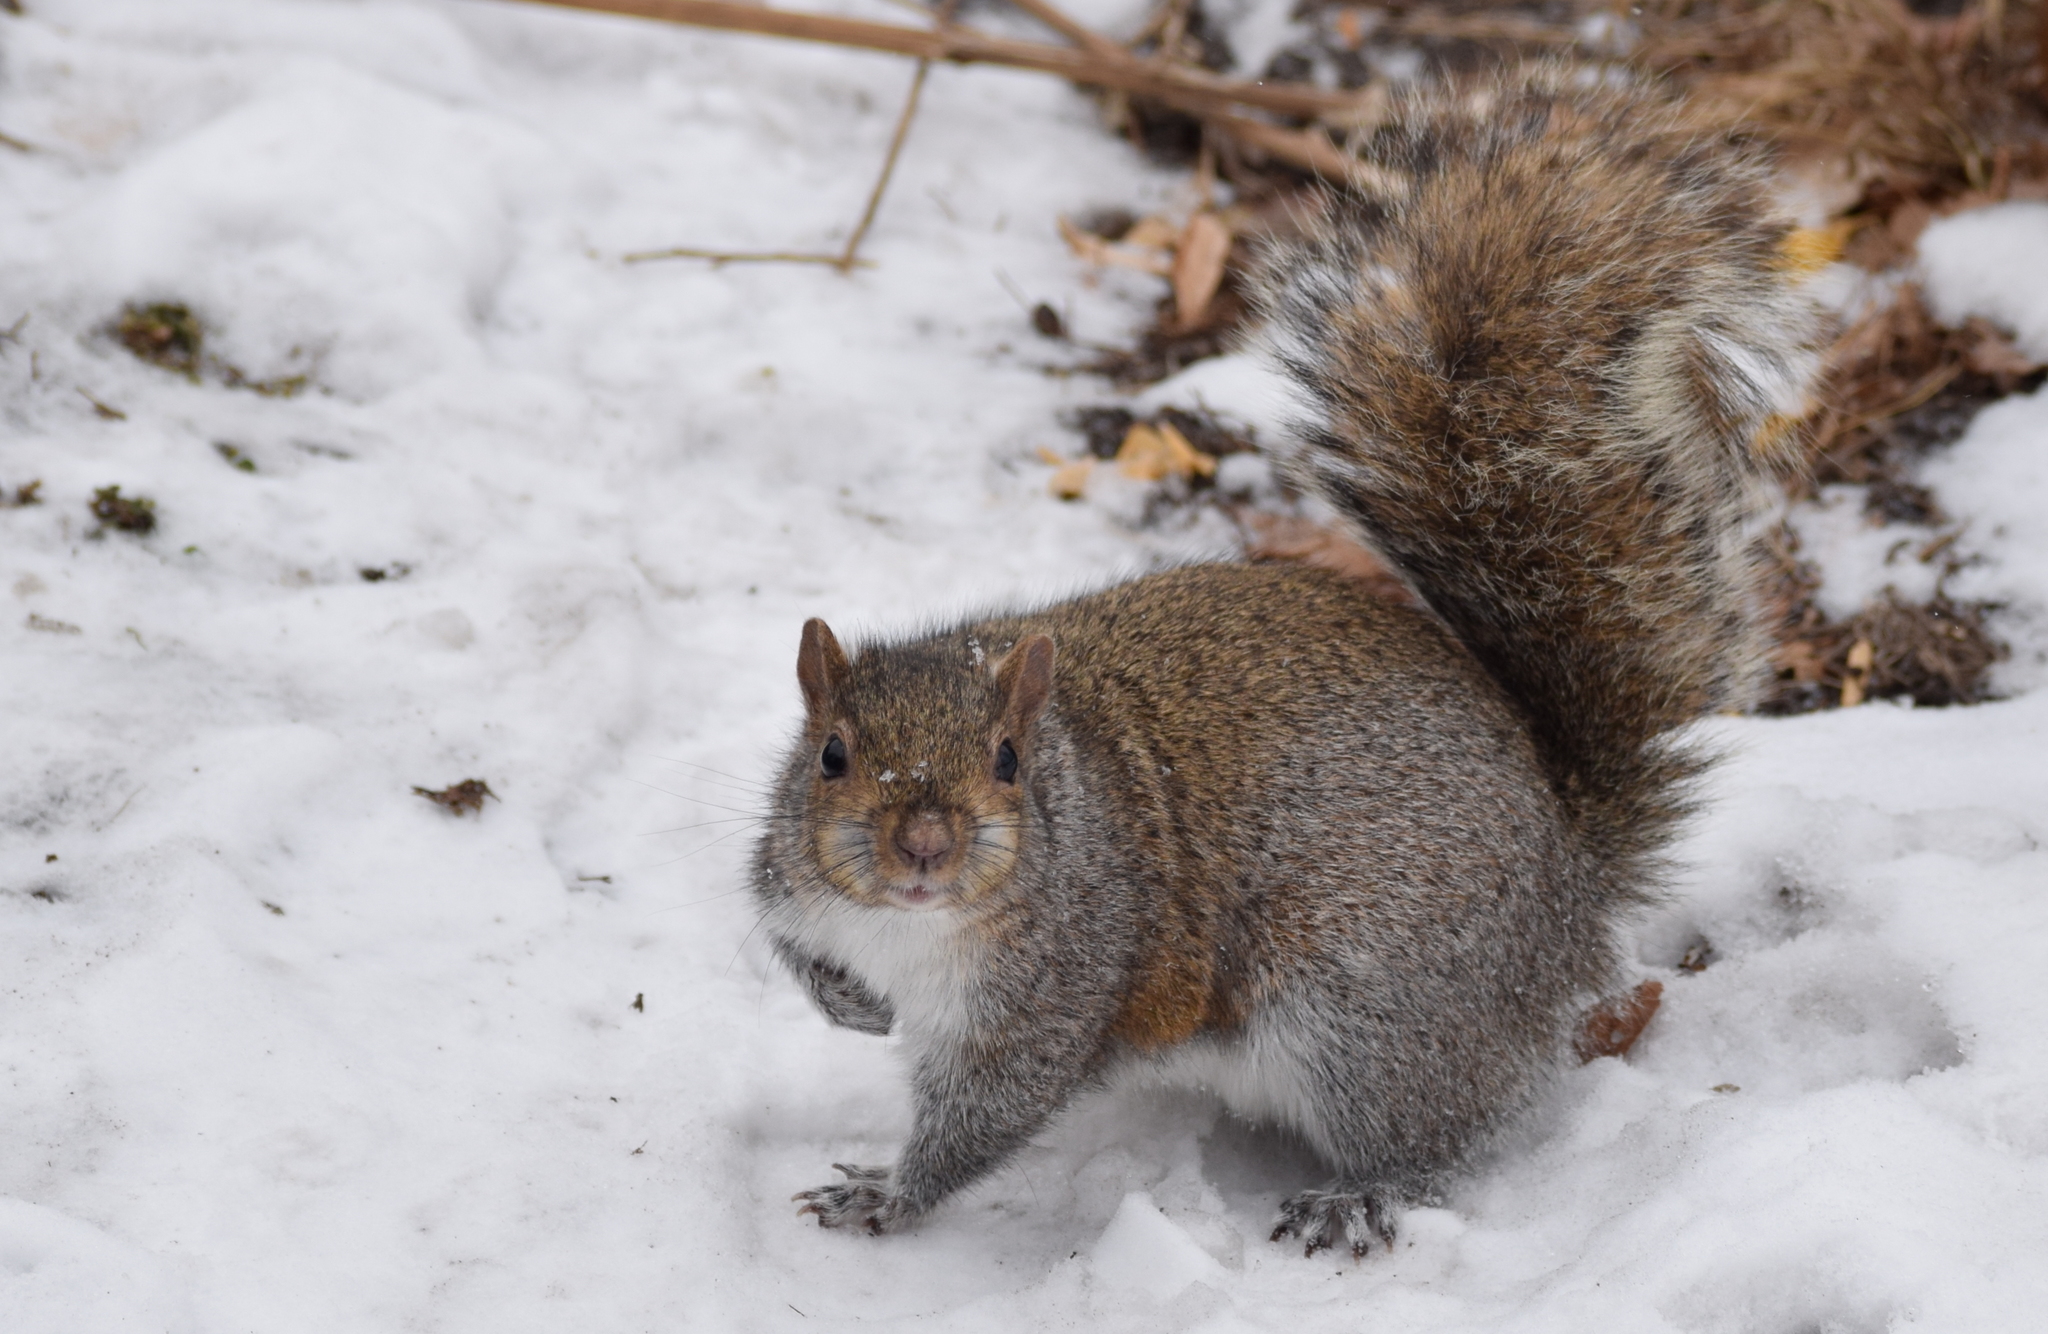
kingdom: Animalia
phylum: Chordata
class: Mammalia
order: Rodentia
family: Sciuridae
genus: Sciurus
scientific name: Sciurus carolinensis
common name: Eastern gray squirrel
